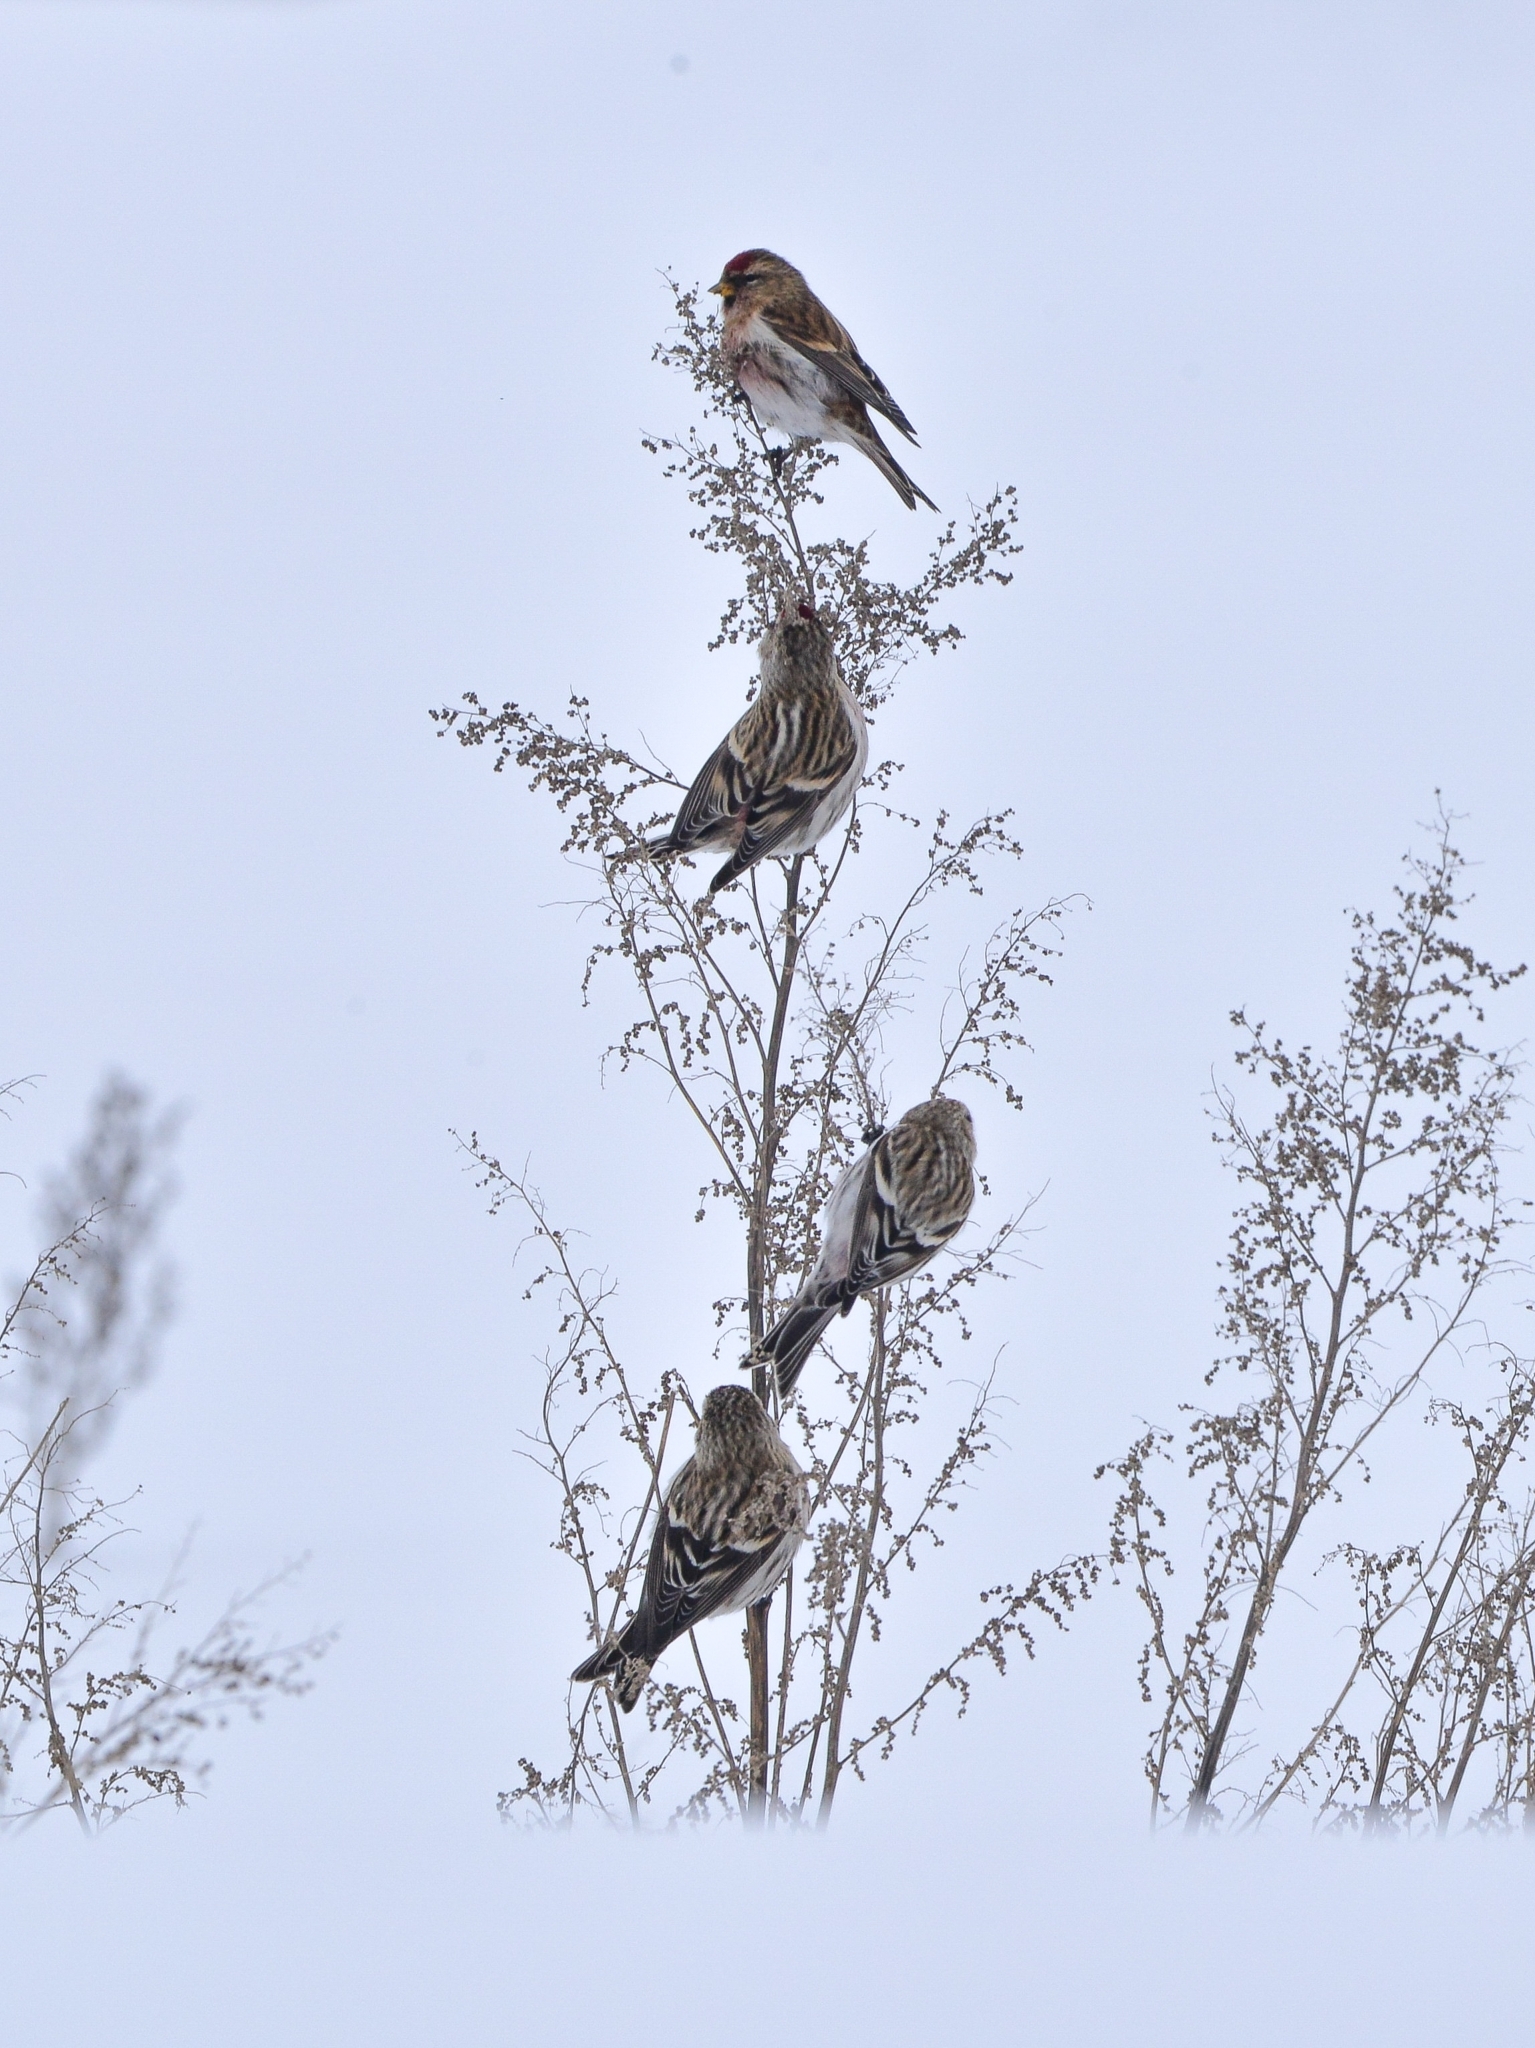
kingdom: Animalia
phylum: Chordata
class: Aves
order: Passeriformes
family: Fringillidae
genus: Acanthis
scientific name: Acanthis flammea
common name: Common redpoll
